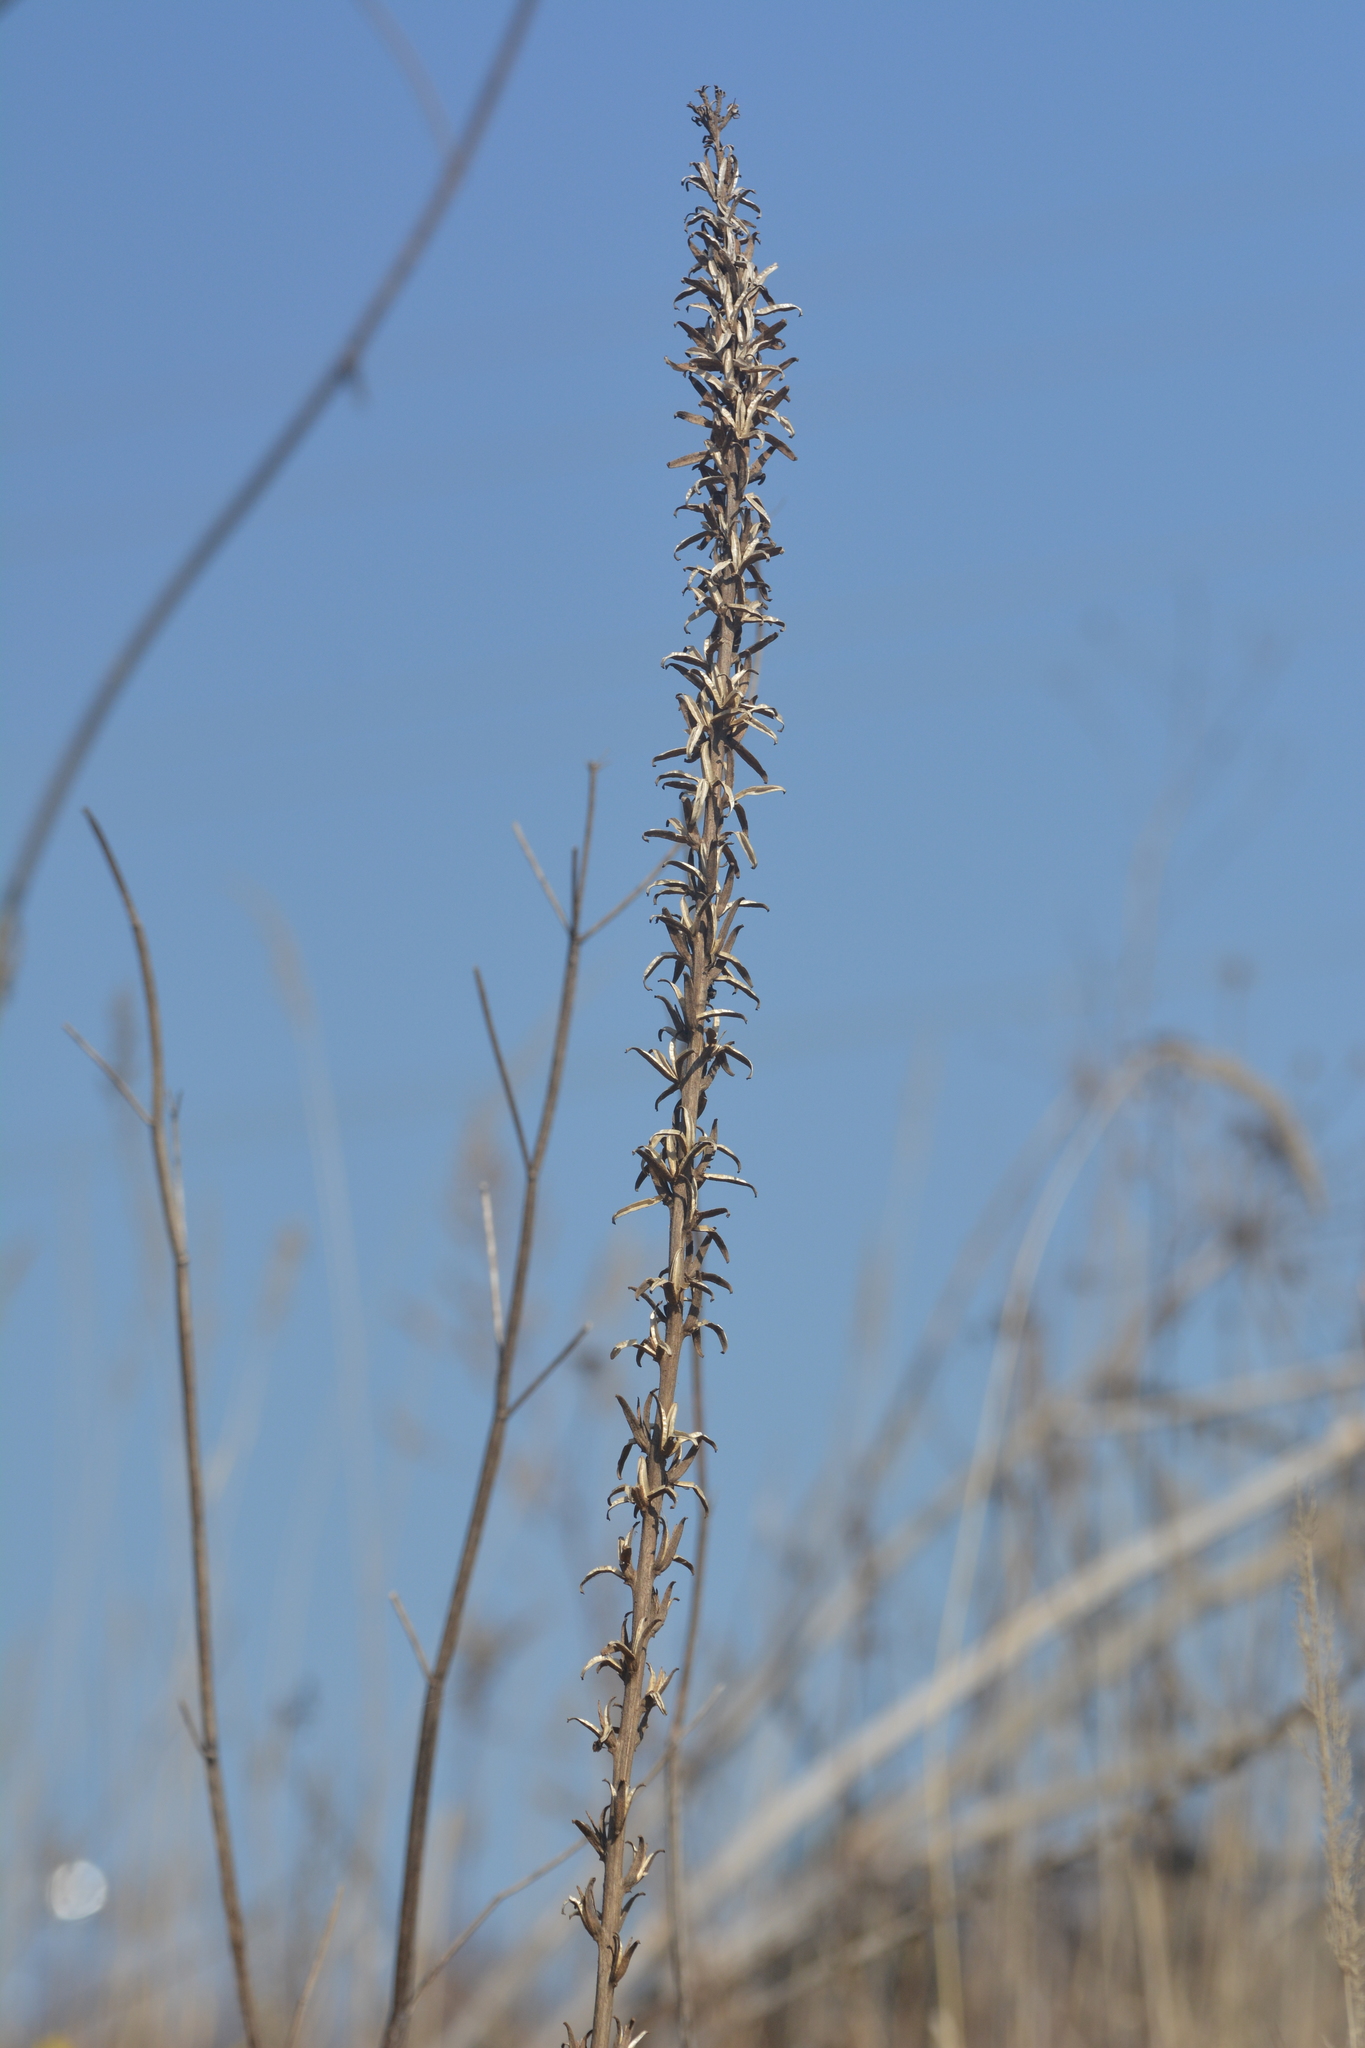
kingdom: Plantae
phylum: Tracheophyta
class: Magnoliopsida
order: Myrtales
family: Onagraceae
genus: Oenothera
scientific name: Oenothera
